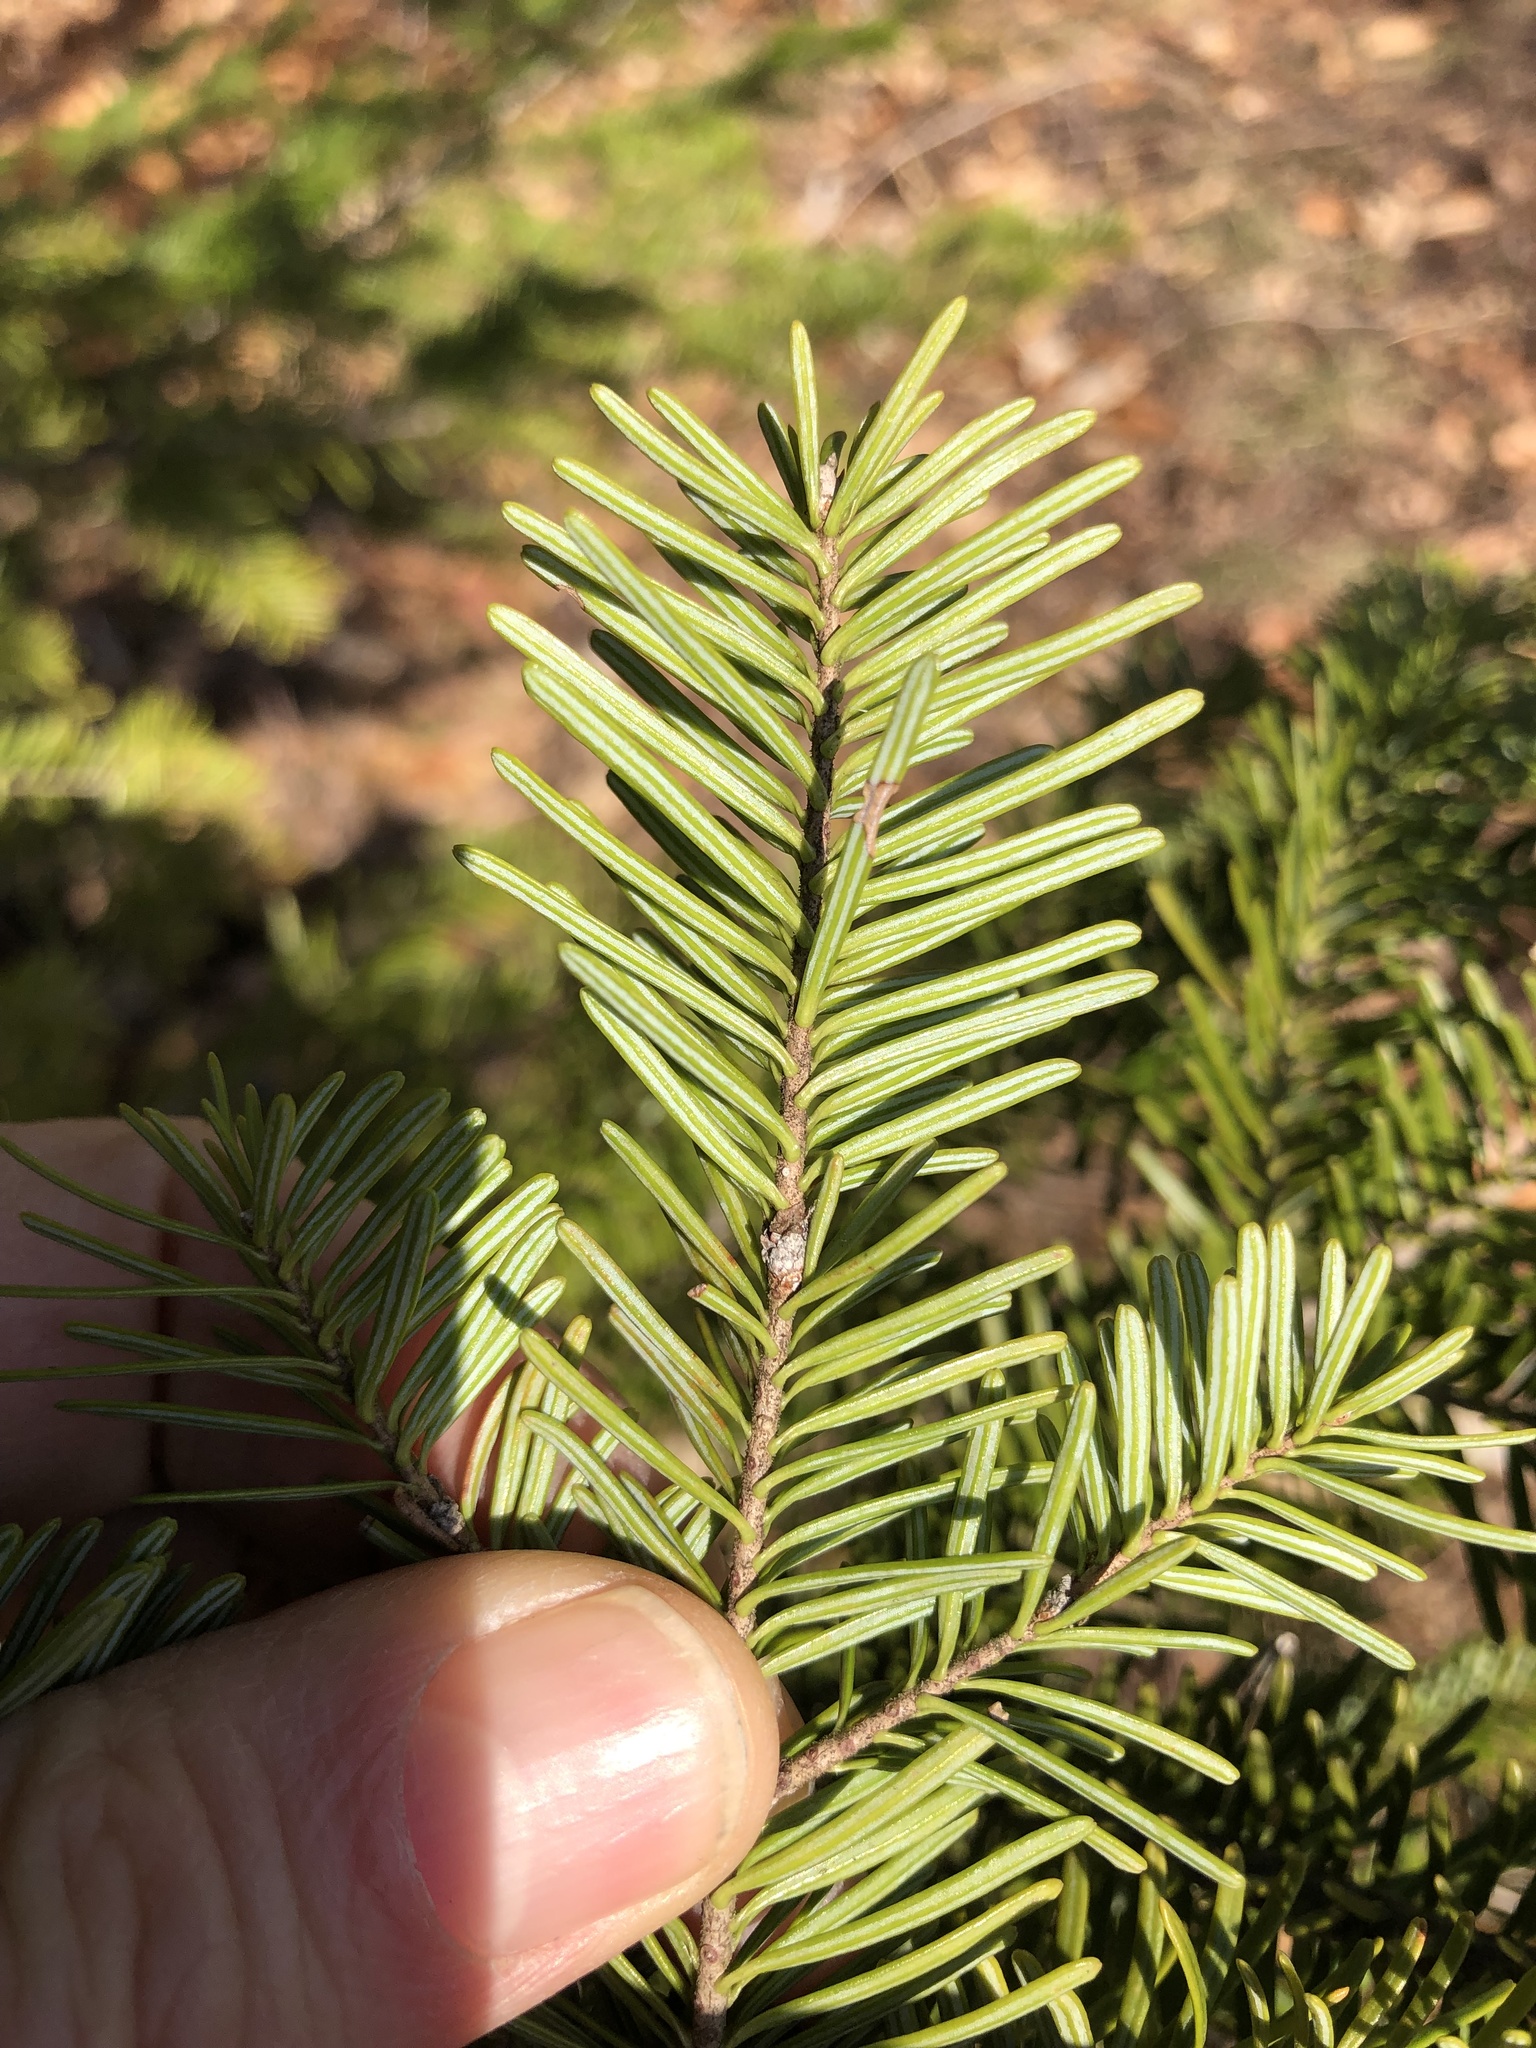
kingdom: Plantae
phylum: Tracheophyta
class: Pinopsida
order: Pinales
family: Pinaceae
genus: Abies
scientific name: Abies balsamea
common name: Balsam fir
